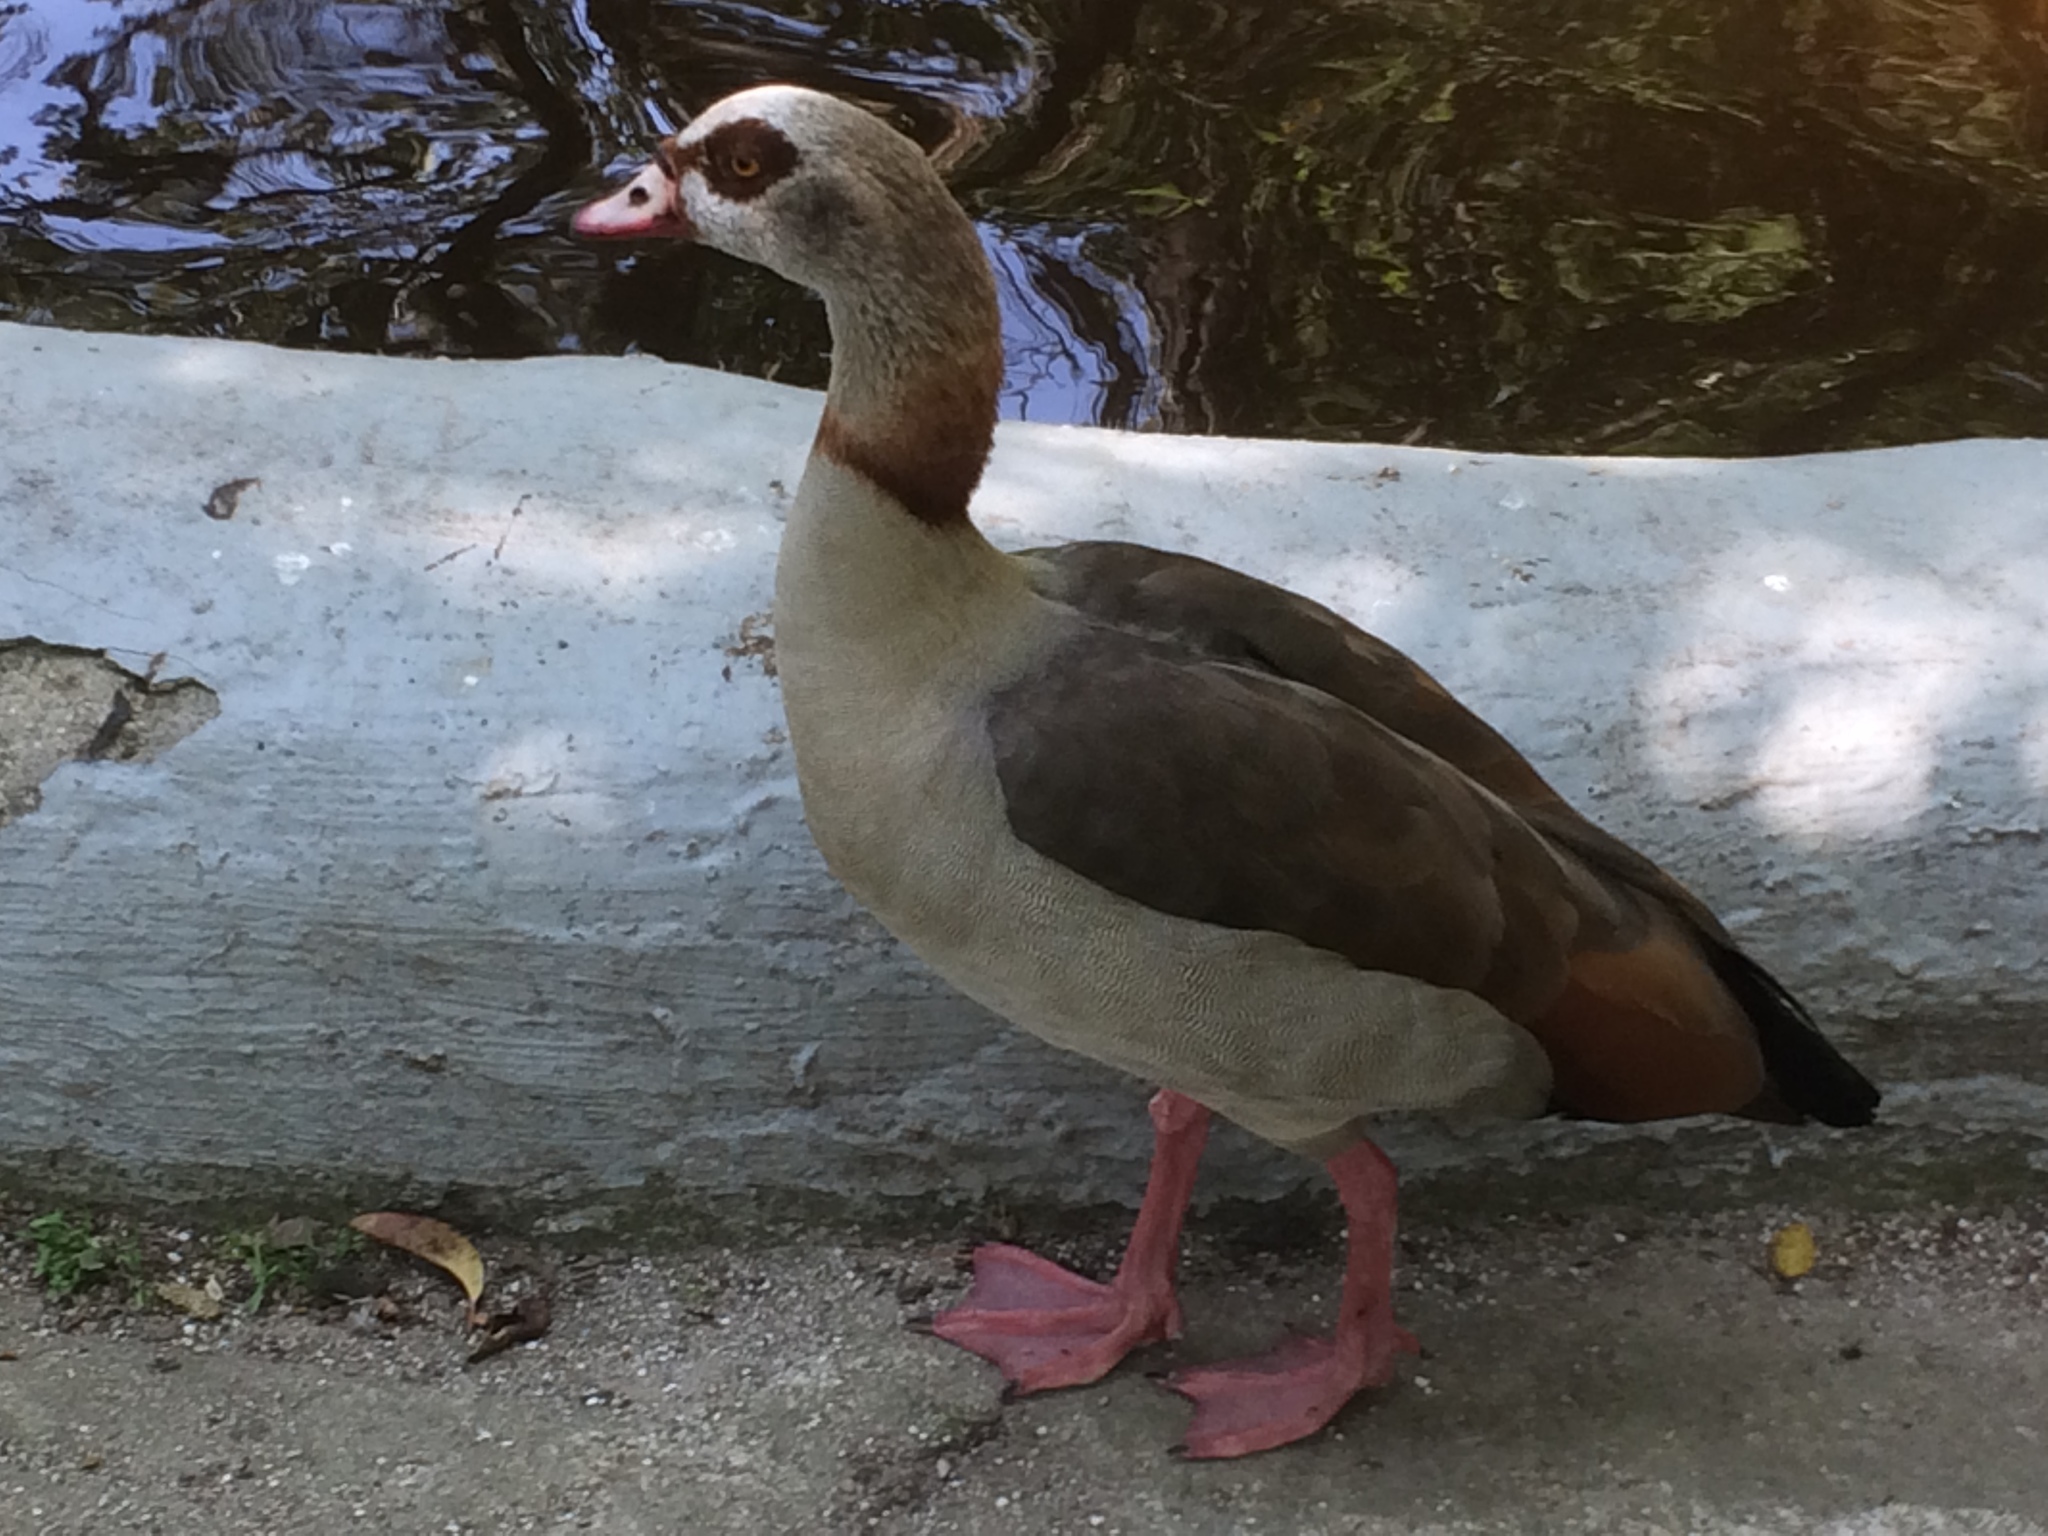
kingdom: Animalia
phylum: Chordata
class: Aves
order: Anseriformes
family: Anatidae
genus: Alopochen
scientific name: Alopochen aegyptiaca
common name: Egyptian goose
